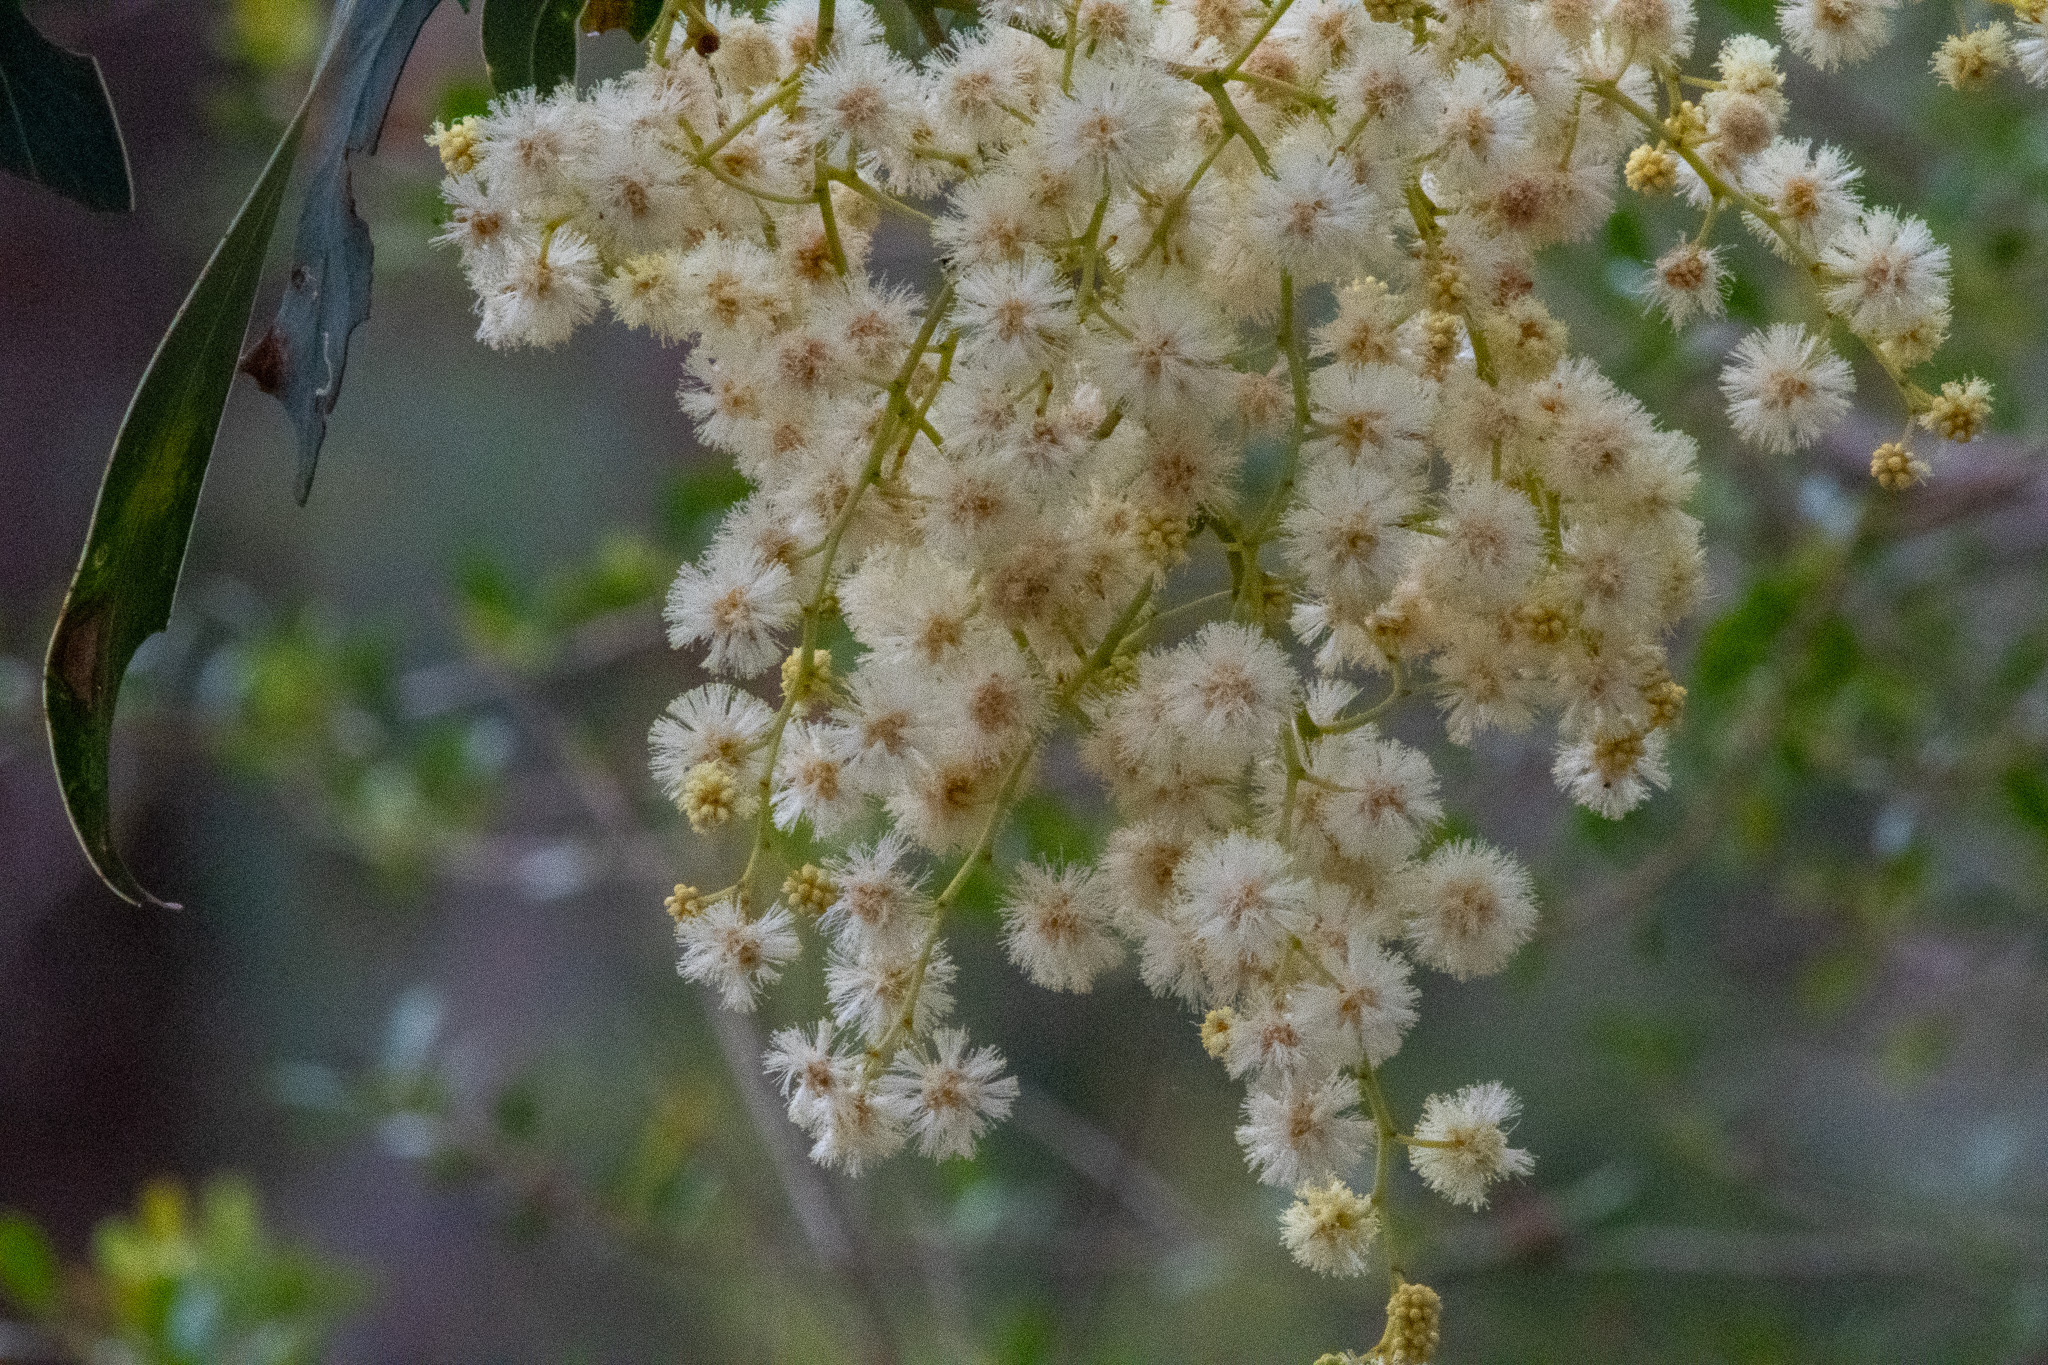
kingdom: Plantae
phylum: Tracheophyta
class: Magnoliopsida
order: Fabales
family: Fabaceae
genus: Acacia
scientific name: Acacia falciformis
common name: Tanning wattle
